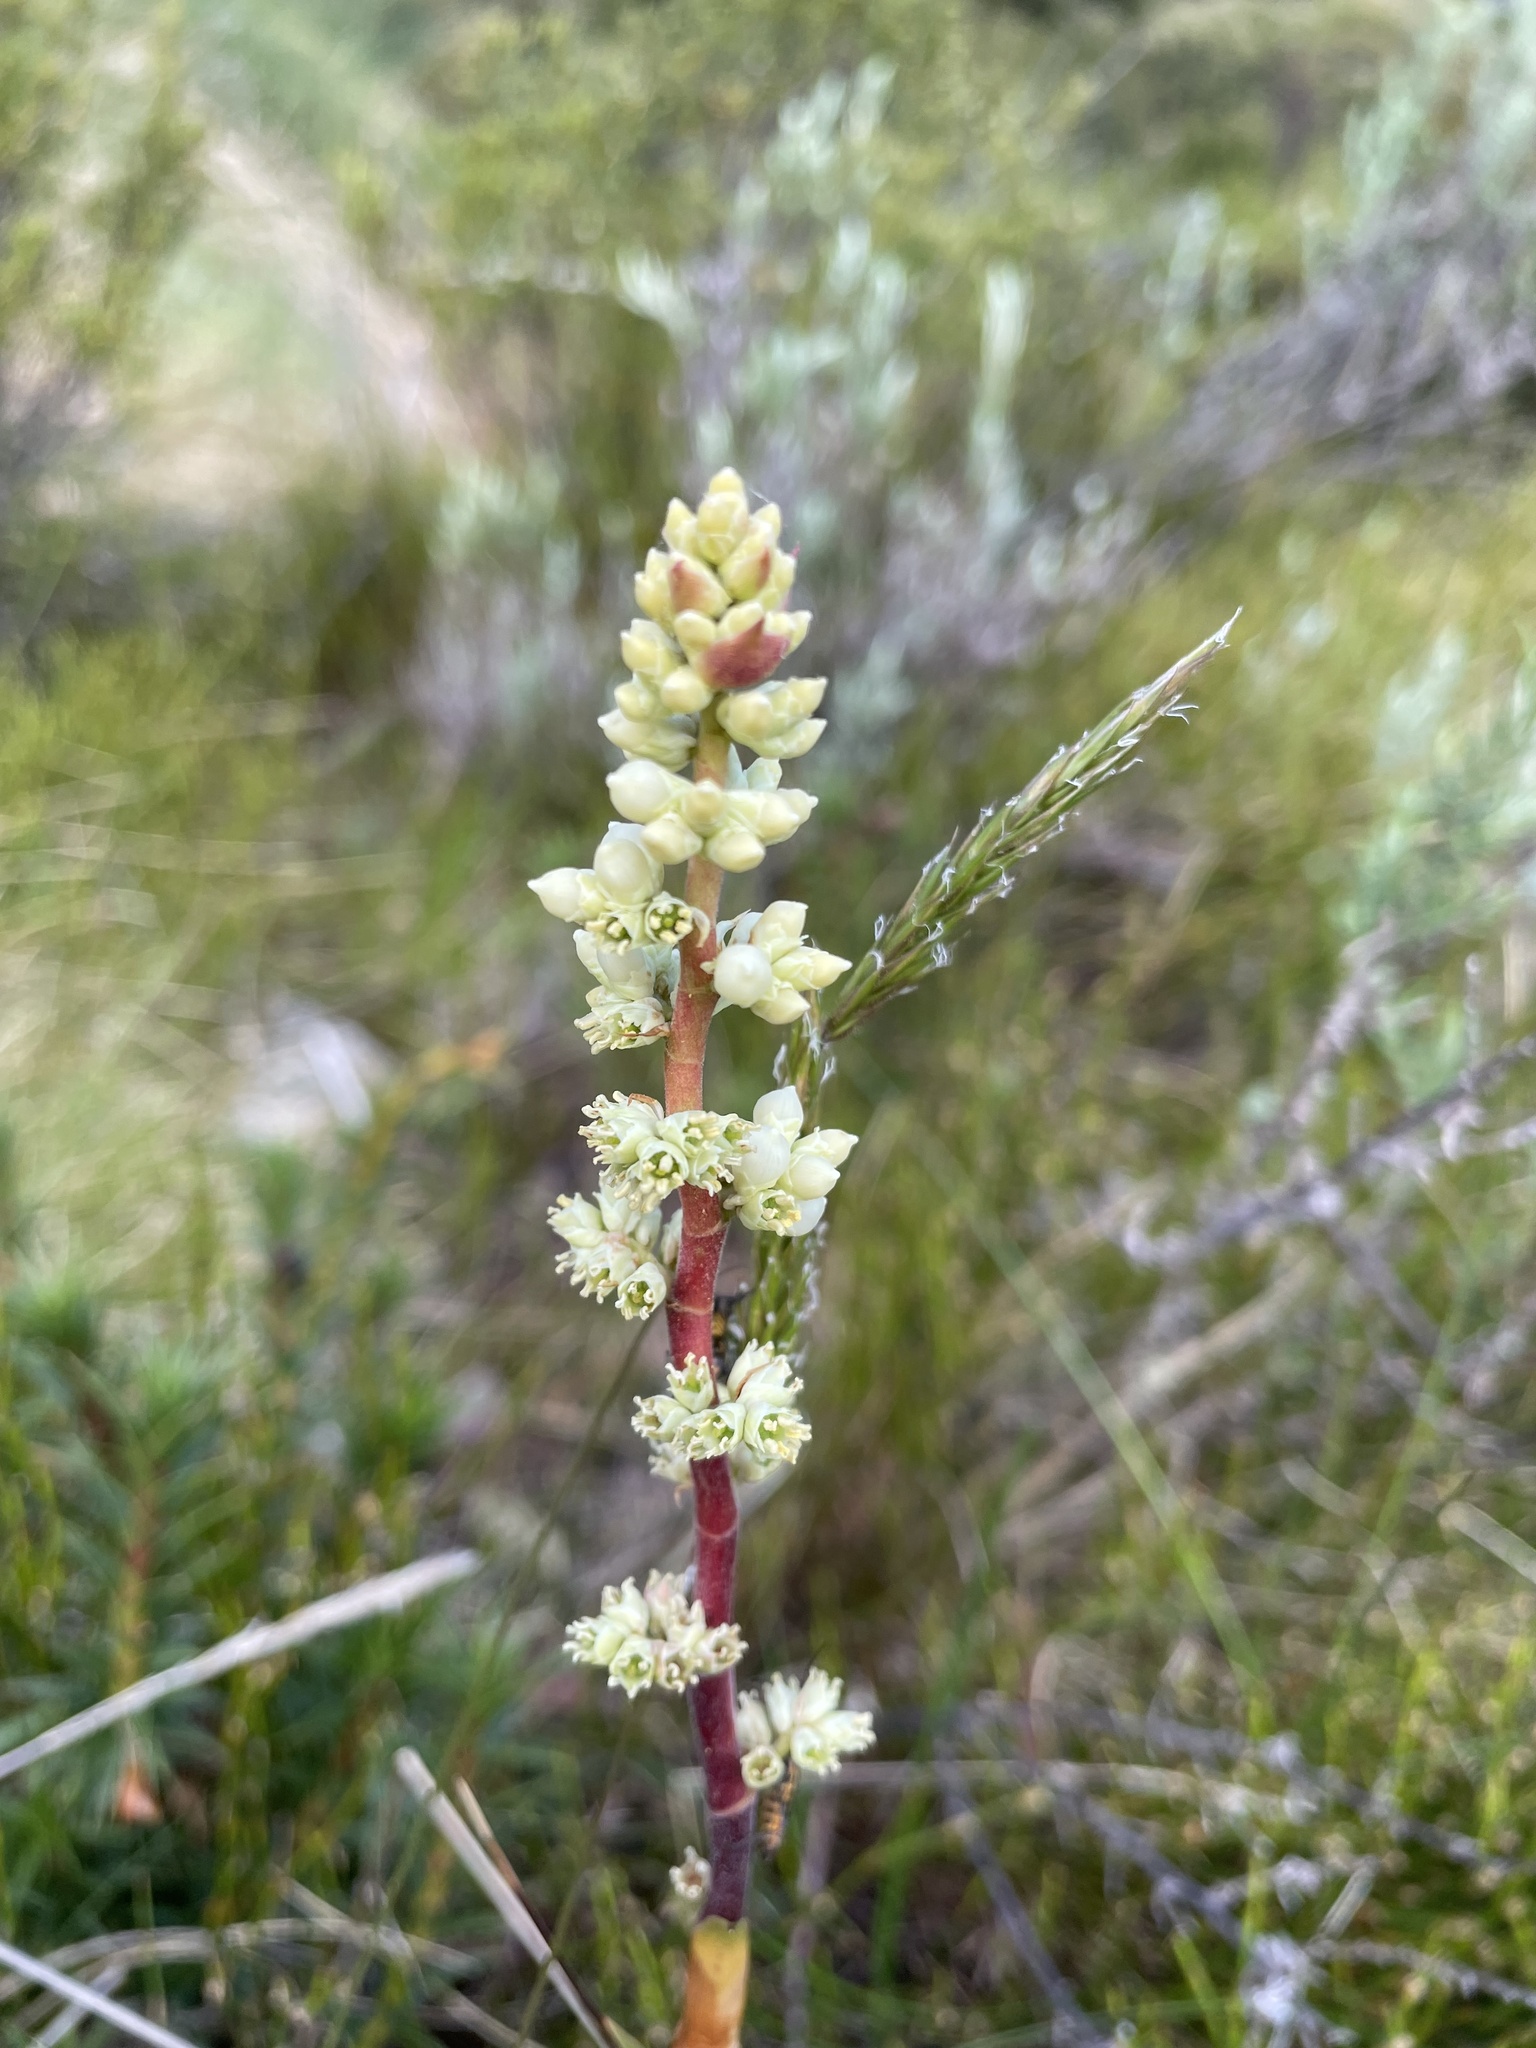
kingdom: Plantae
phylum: Tracheophyta
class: Magnoliopsida
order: Ericales
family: Ericaceae
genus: Dracophyllum
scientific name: Dracophyllum continentis
